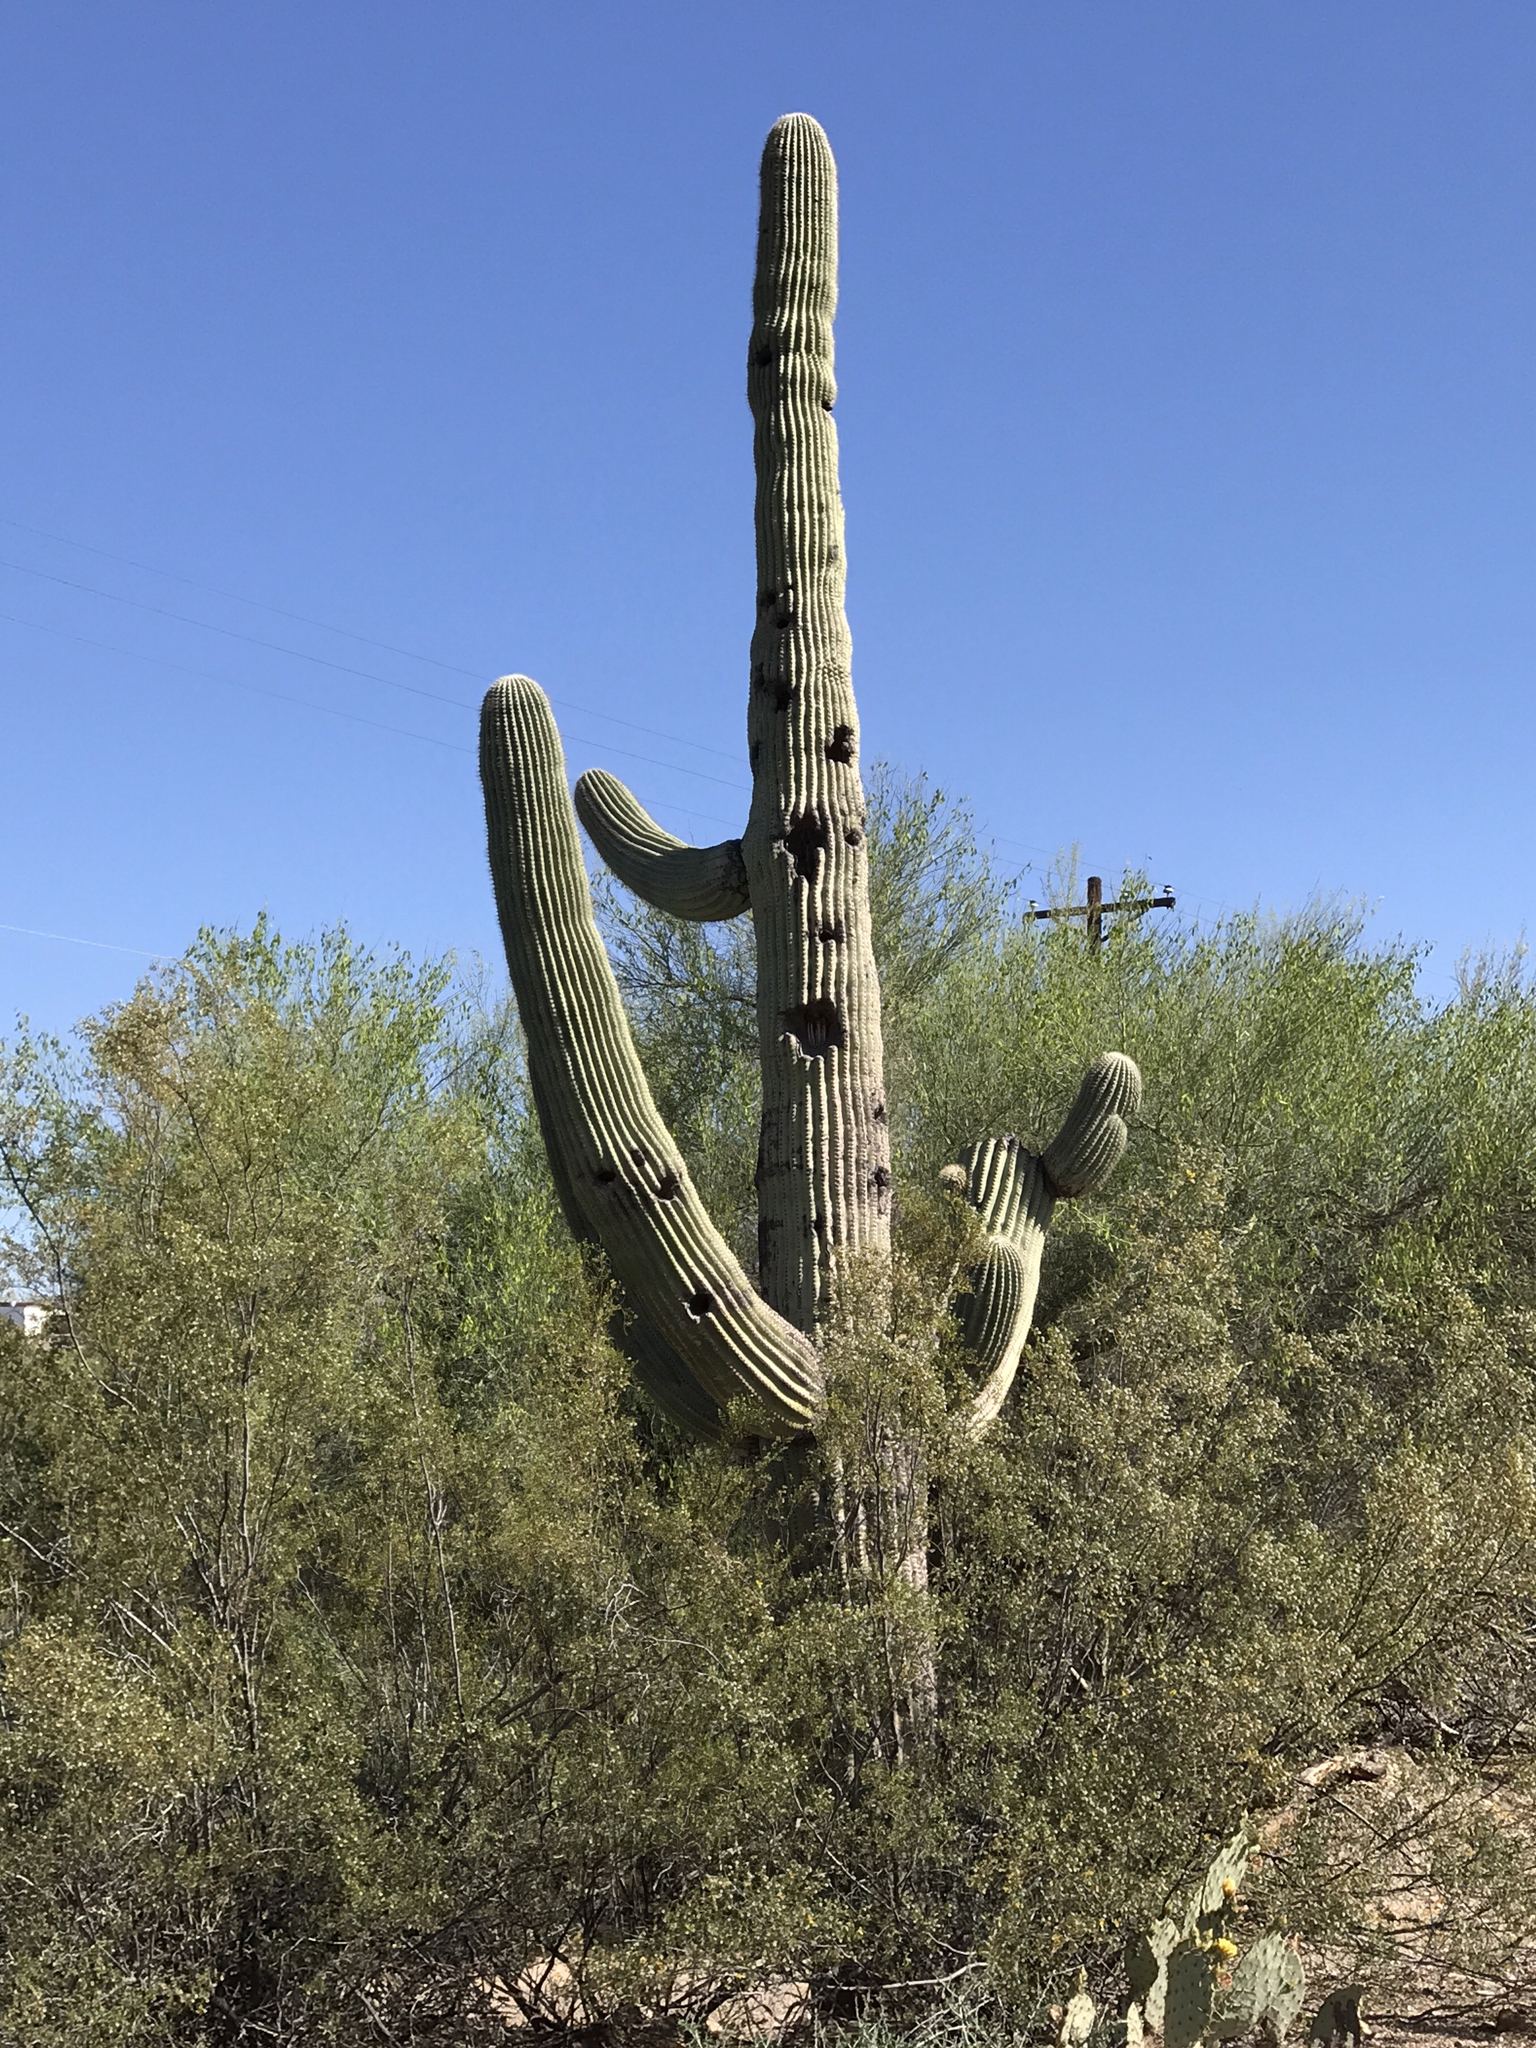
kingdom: Plantae
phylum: Tracheophyta
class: Magnoliopsida
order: Caryophyllales
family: Cactaceae
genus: Carnegiea
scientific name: Carnegiea gigantea
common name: Saguaro
